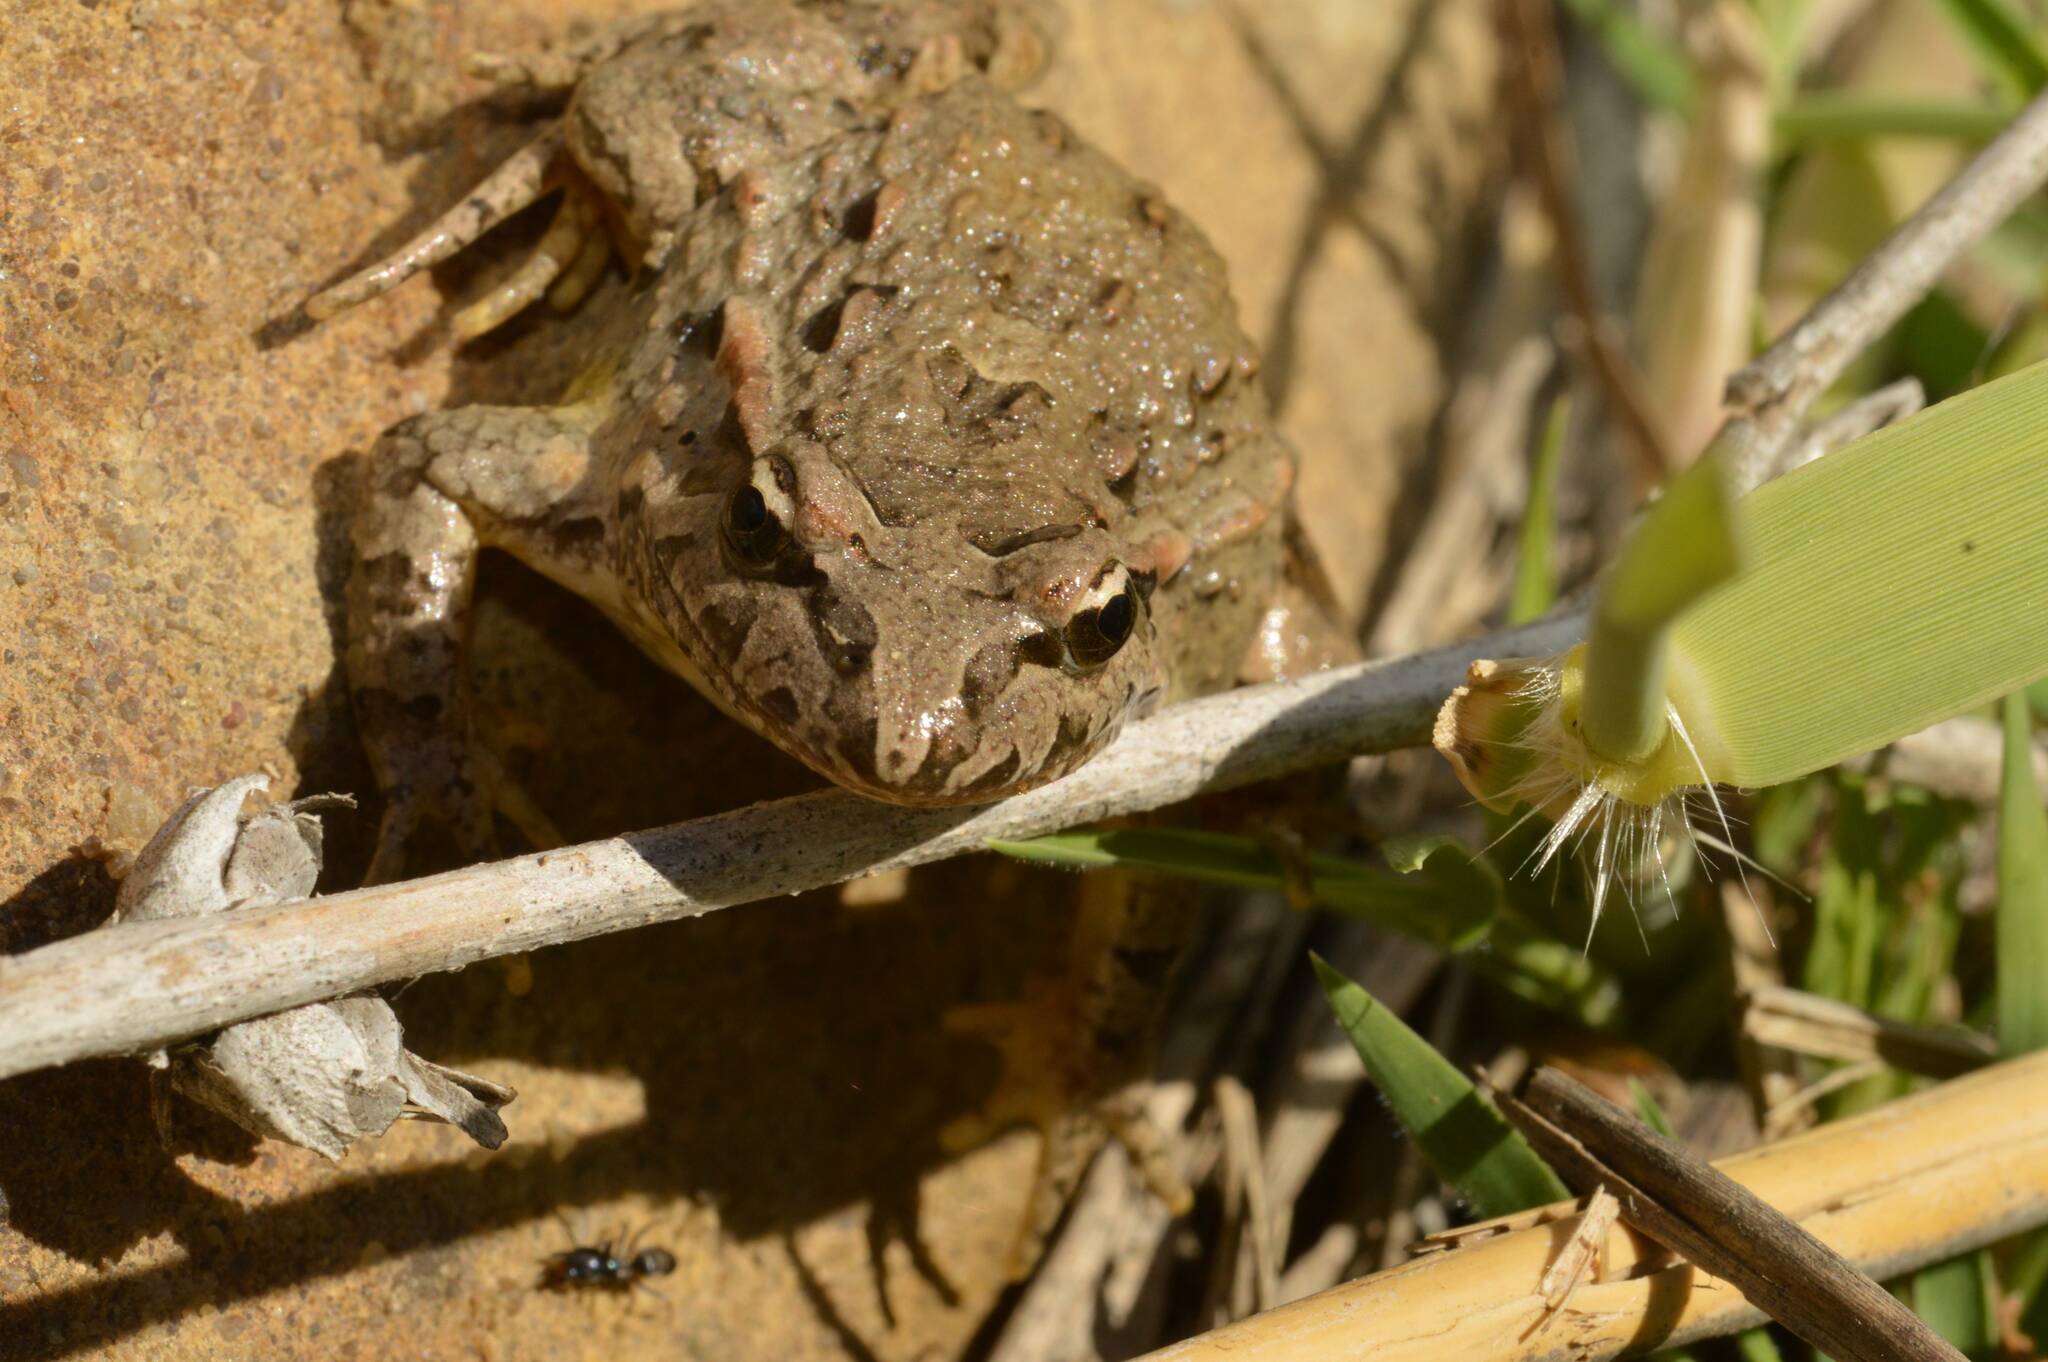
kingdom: Animalia
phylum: Chordata
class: Amphibia
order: Anura
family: Alytidae
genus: Discoglossus
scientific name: Discoglossus pictus
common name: Painted frog
